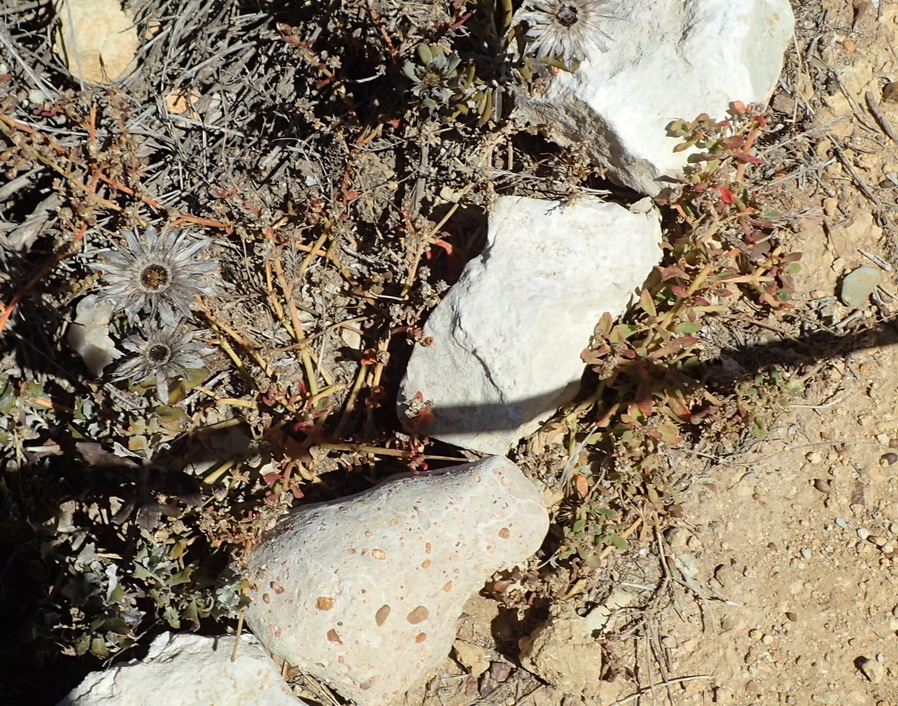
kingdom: Plantae
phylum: Tracheophyta
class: Magnoliopsida
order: Caryophyllales
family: Aizoaceae
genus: Mesembryanthemum
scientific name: Mesembryanthemum aitonis
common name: Angled iceplant
